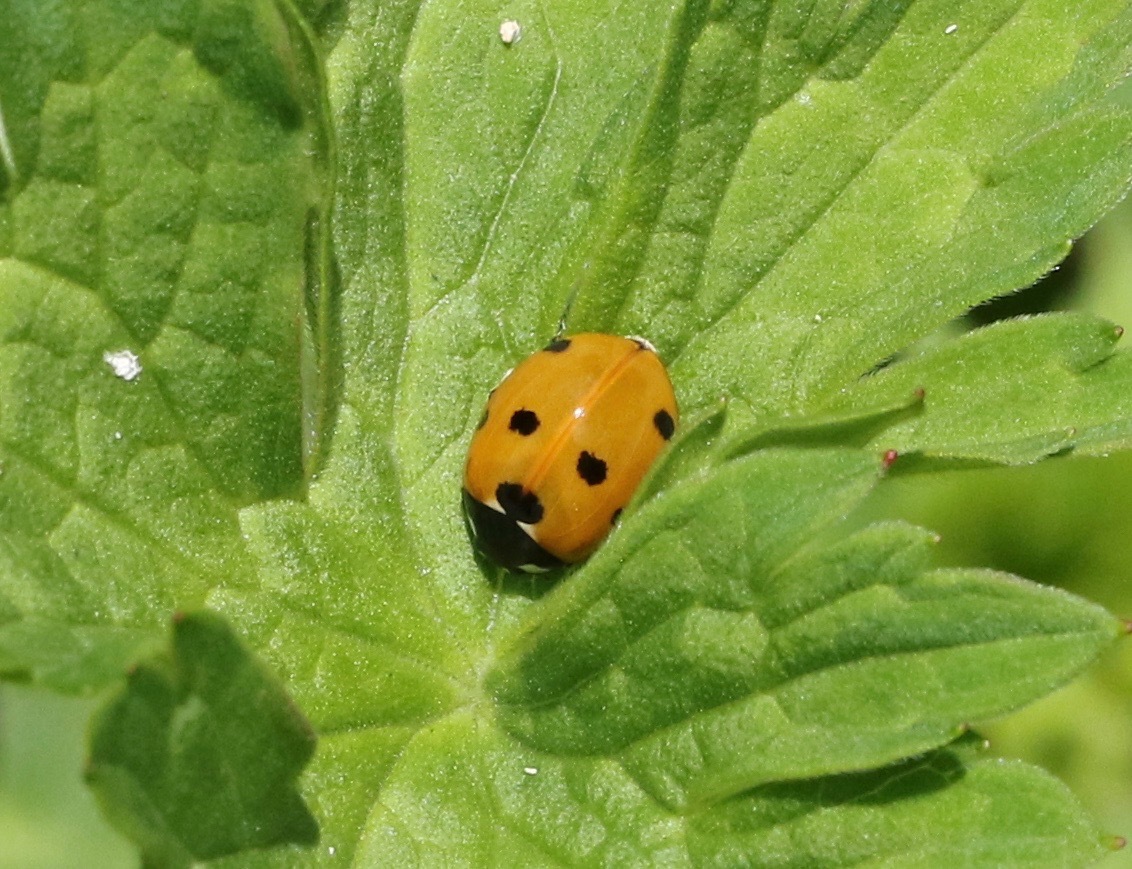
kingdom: Animalia
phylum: Arthropoda
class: Insecta
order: Coleoptera
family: Coccinellidae
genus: Coccinella
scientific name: Coccinella septempunctata
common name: Sevenspotted lady beetle
